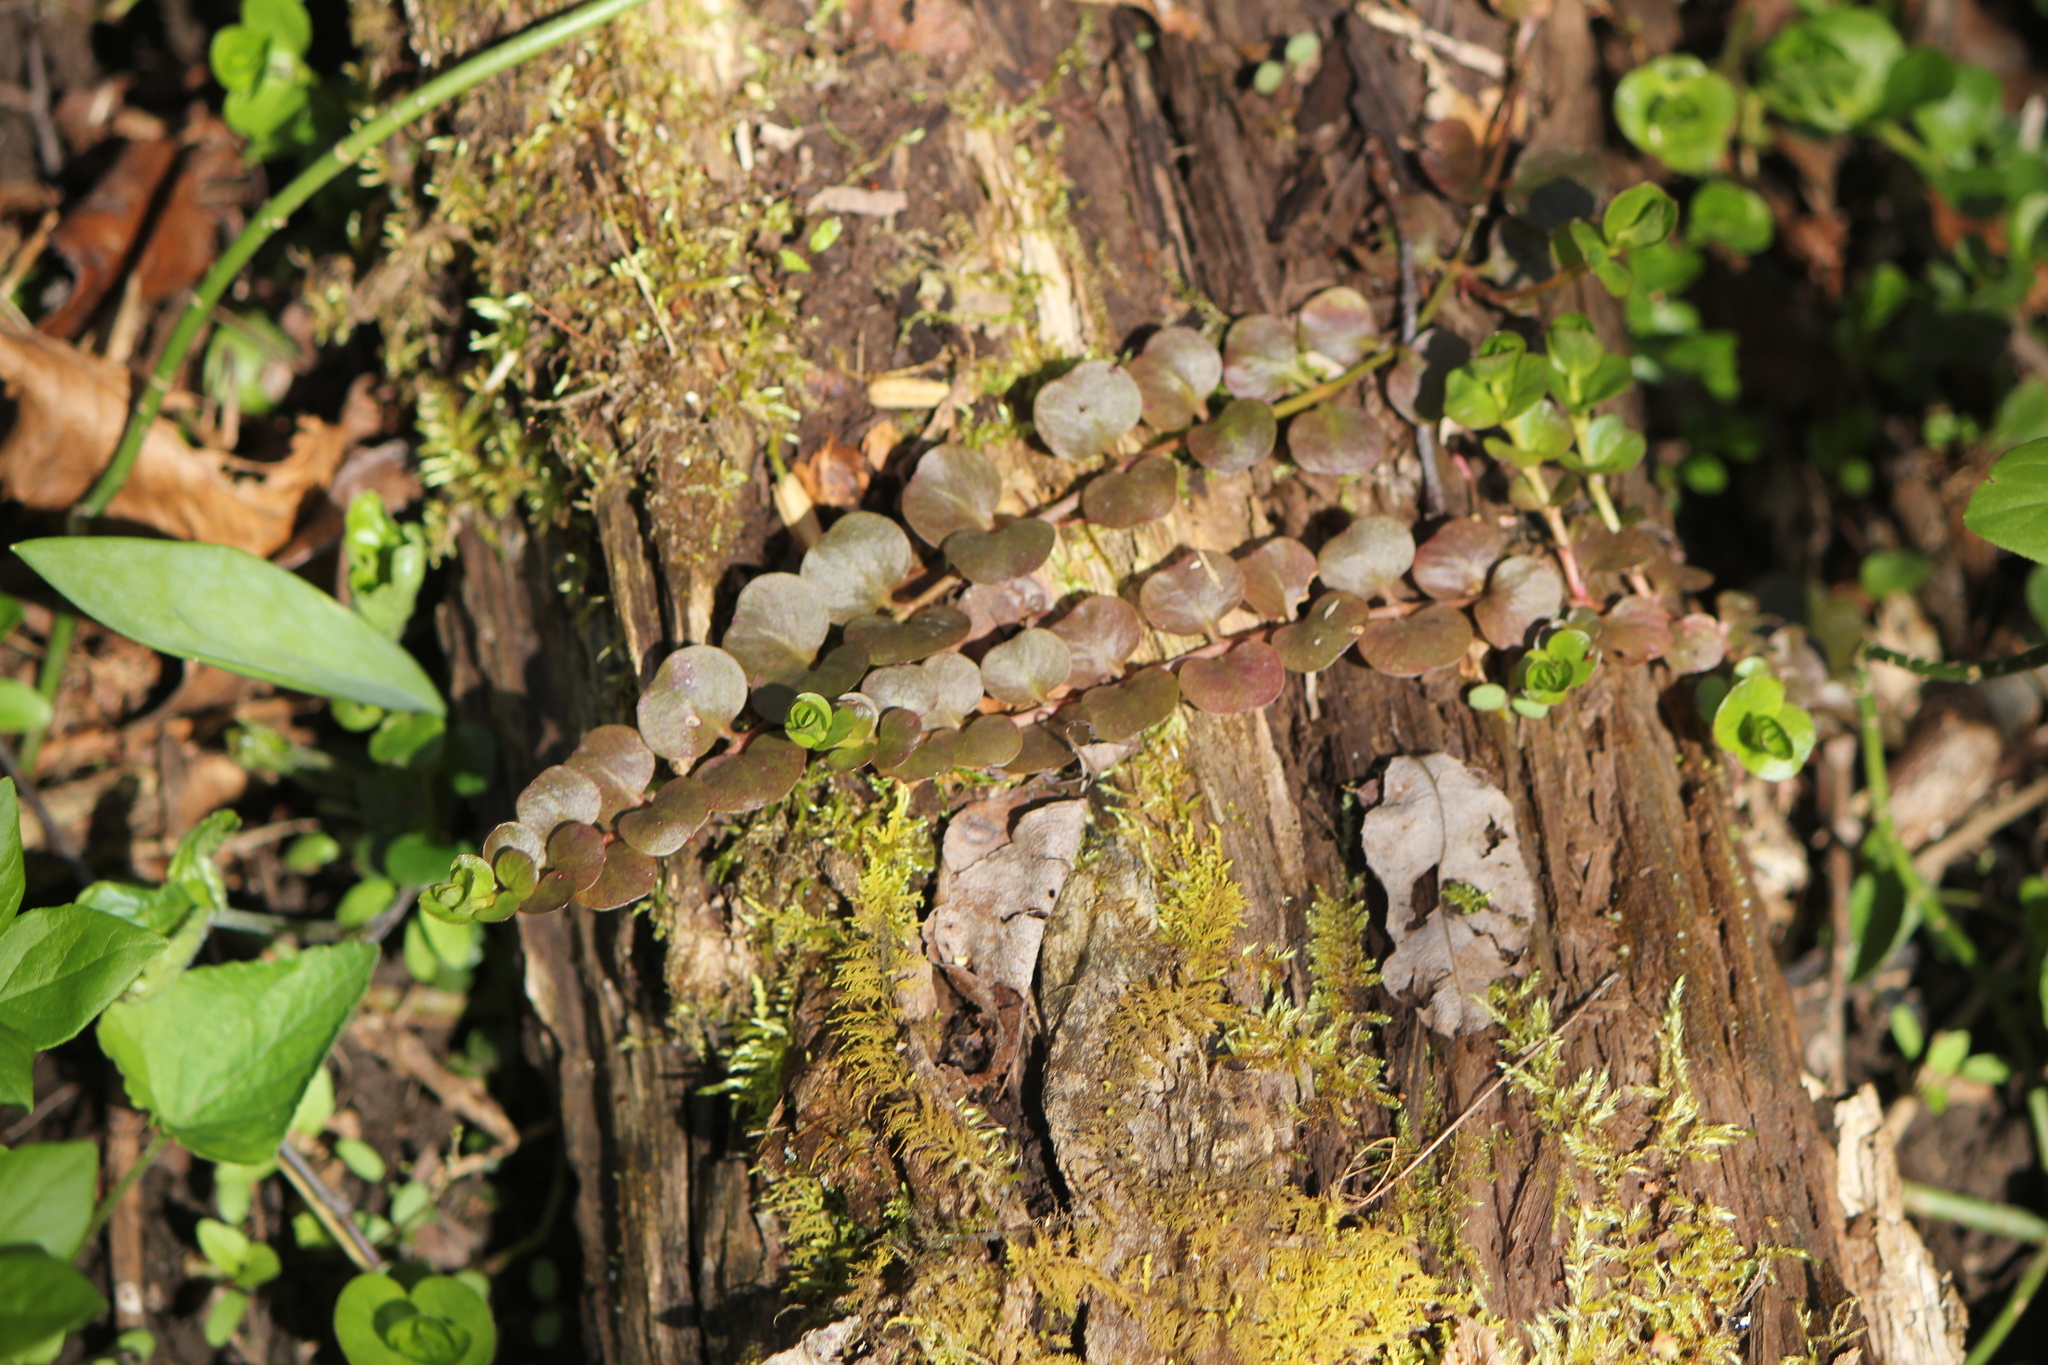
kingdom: Plantae
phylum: Tracheophyta
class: Magnoliopsida
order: Ericales
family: Primulaceae
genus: Lysimachia
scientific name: Lysimachia nummularia
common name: Moneywort
